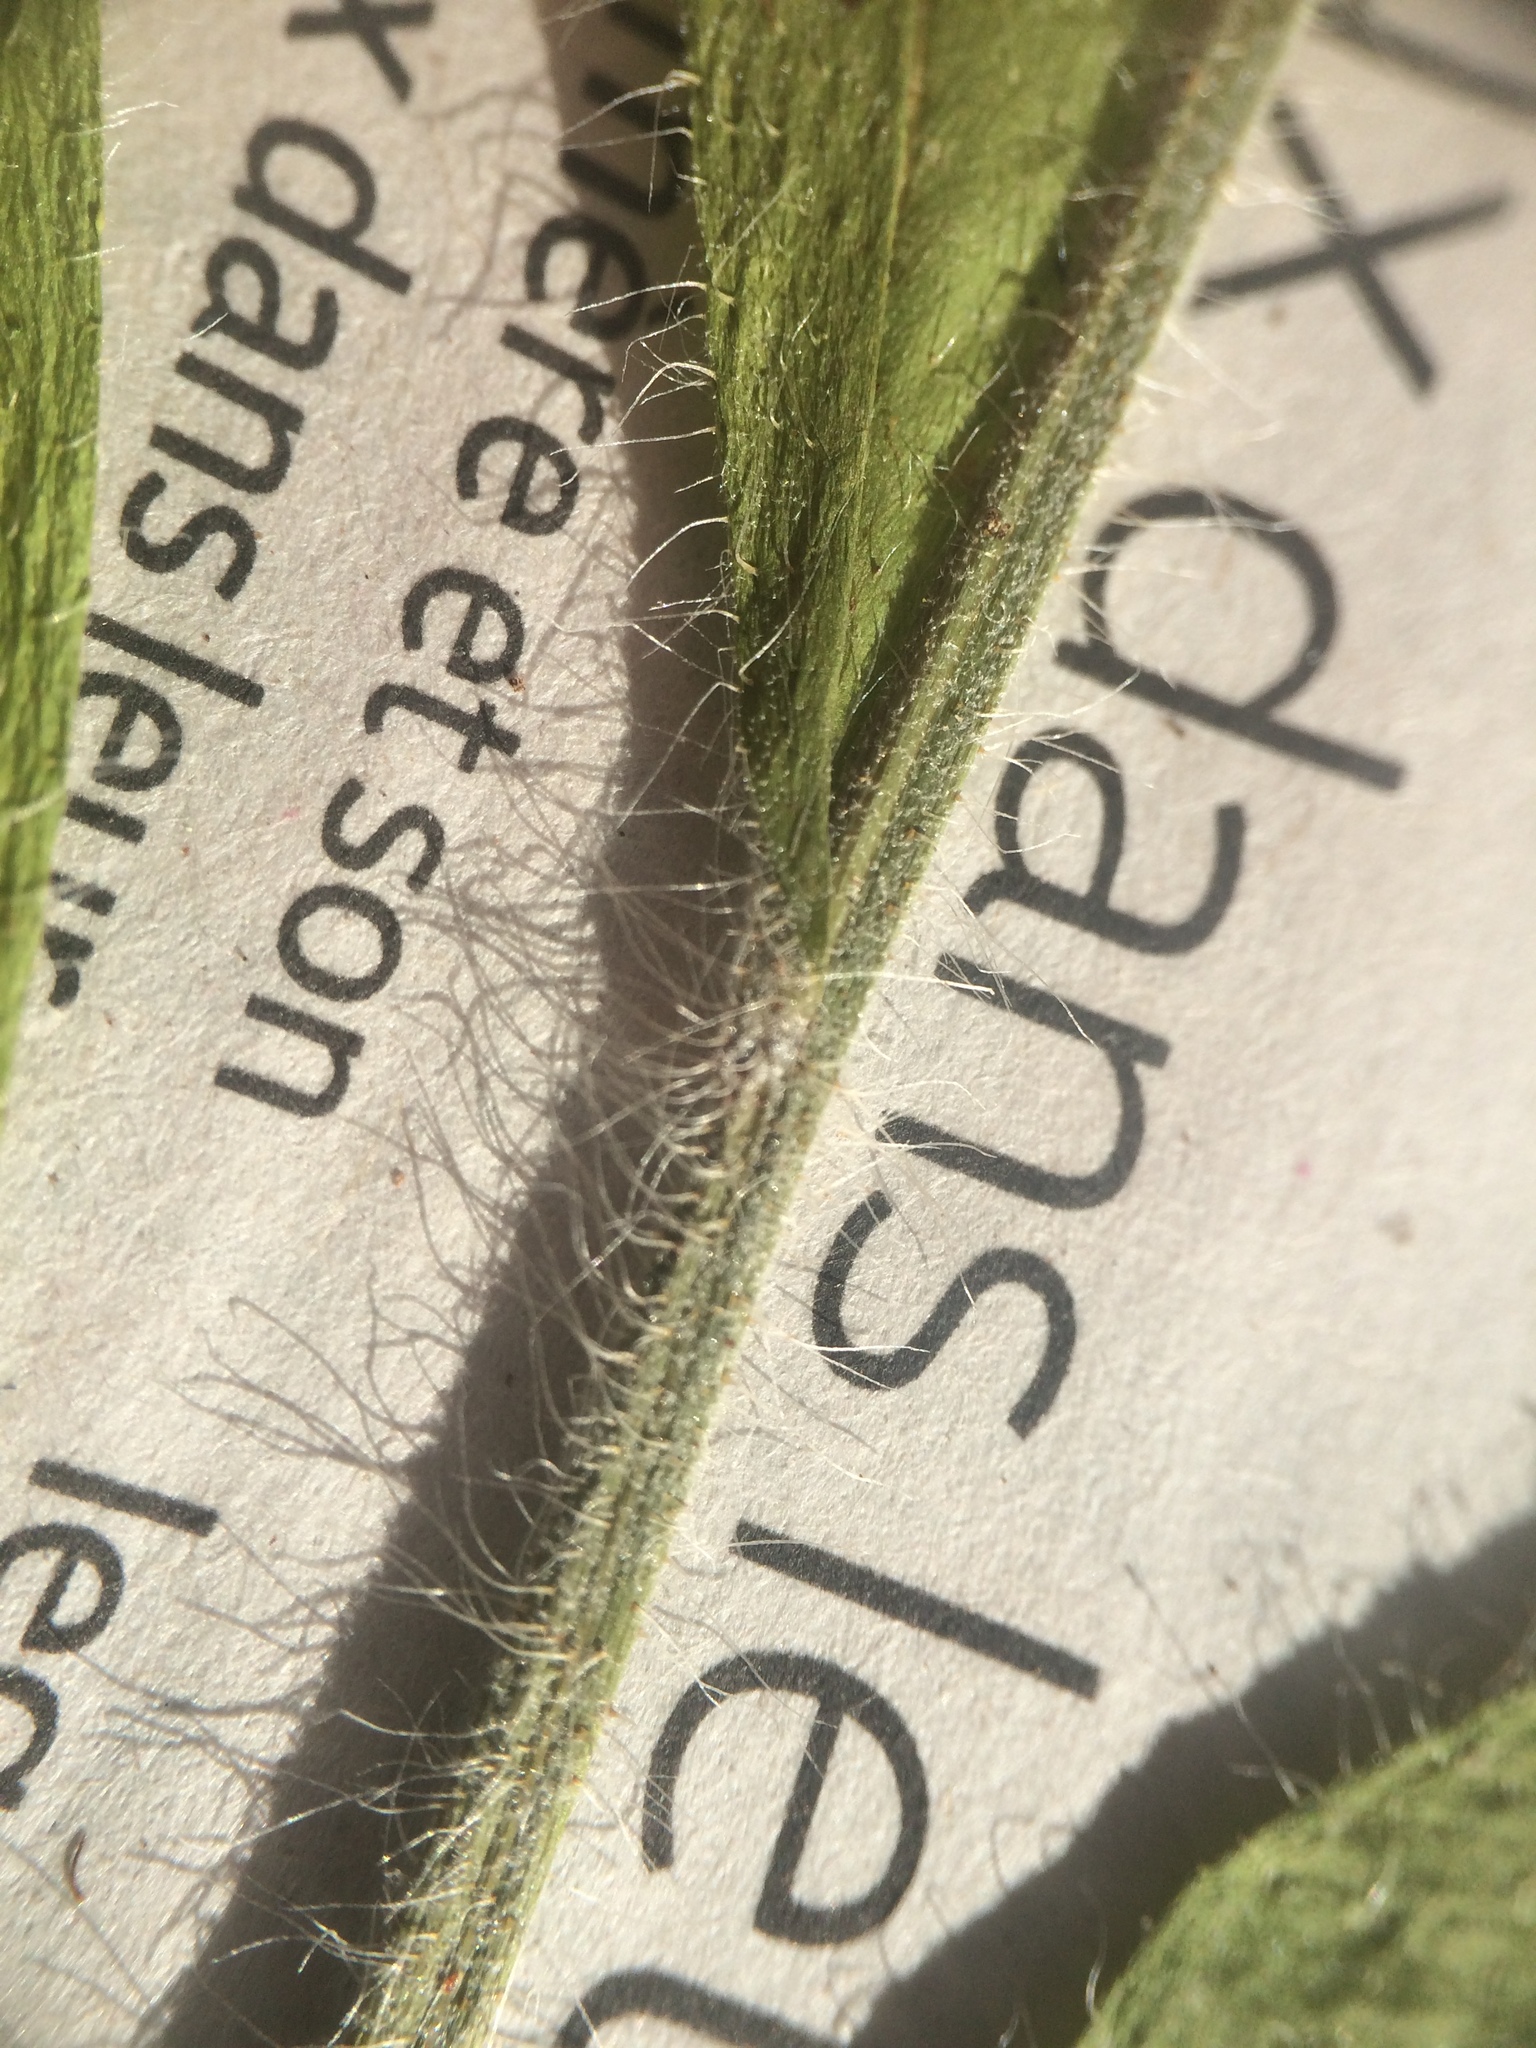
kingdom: Plantae
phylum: Tracheophyta
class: Magnoliopsida
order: Asterales
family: Asteraceae
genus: Pilosella
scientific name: Pilosella caespitosa
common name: Yellow fox-and-cubs
